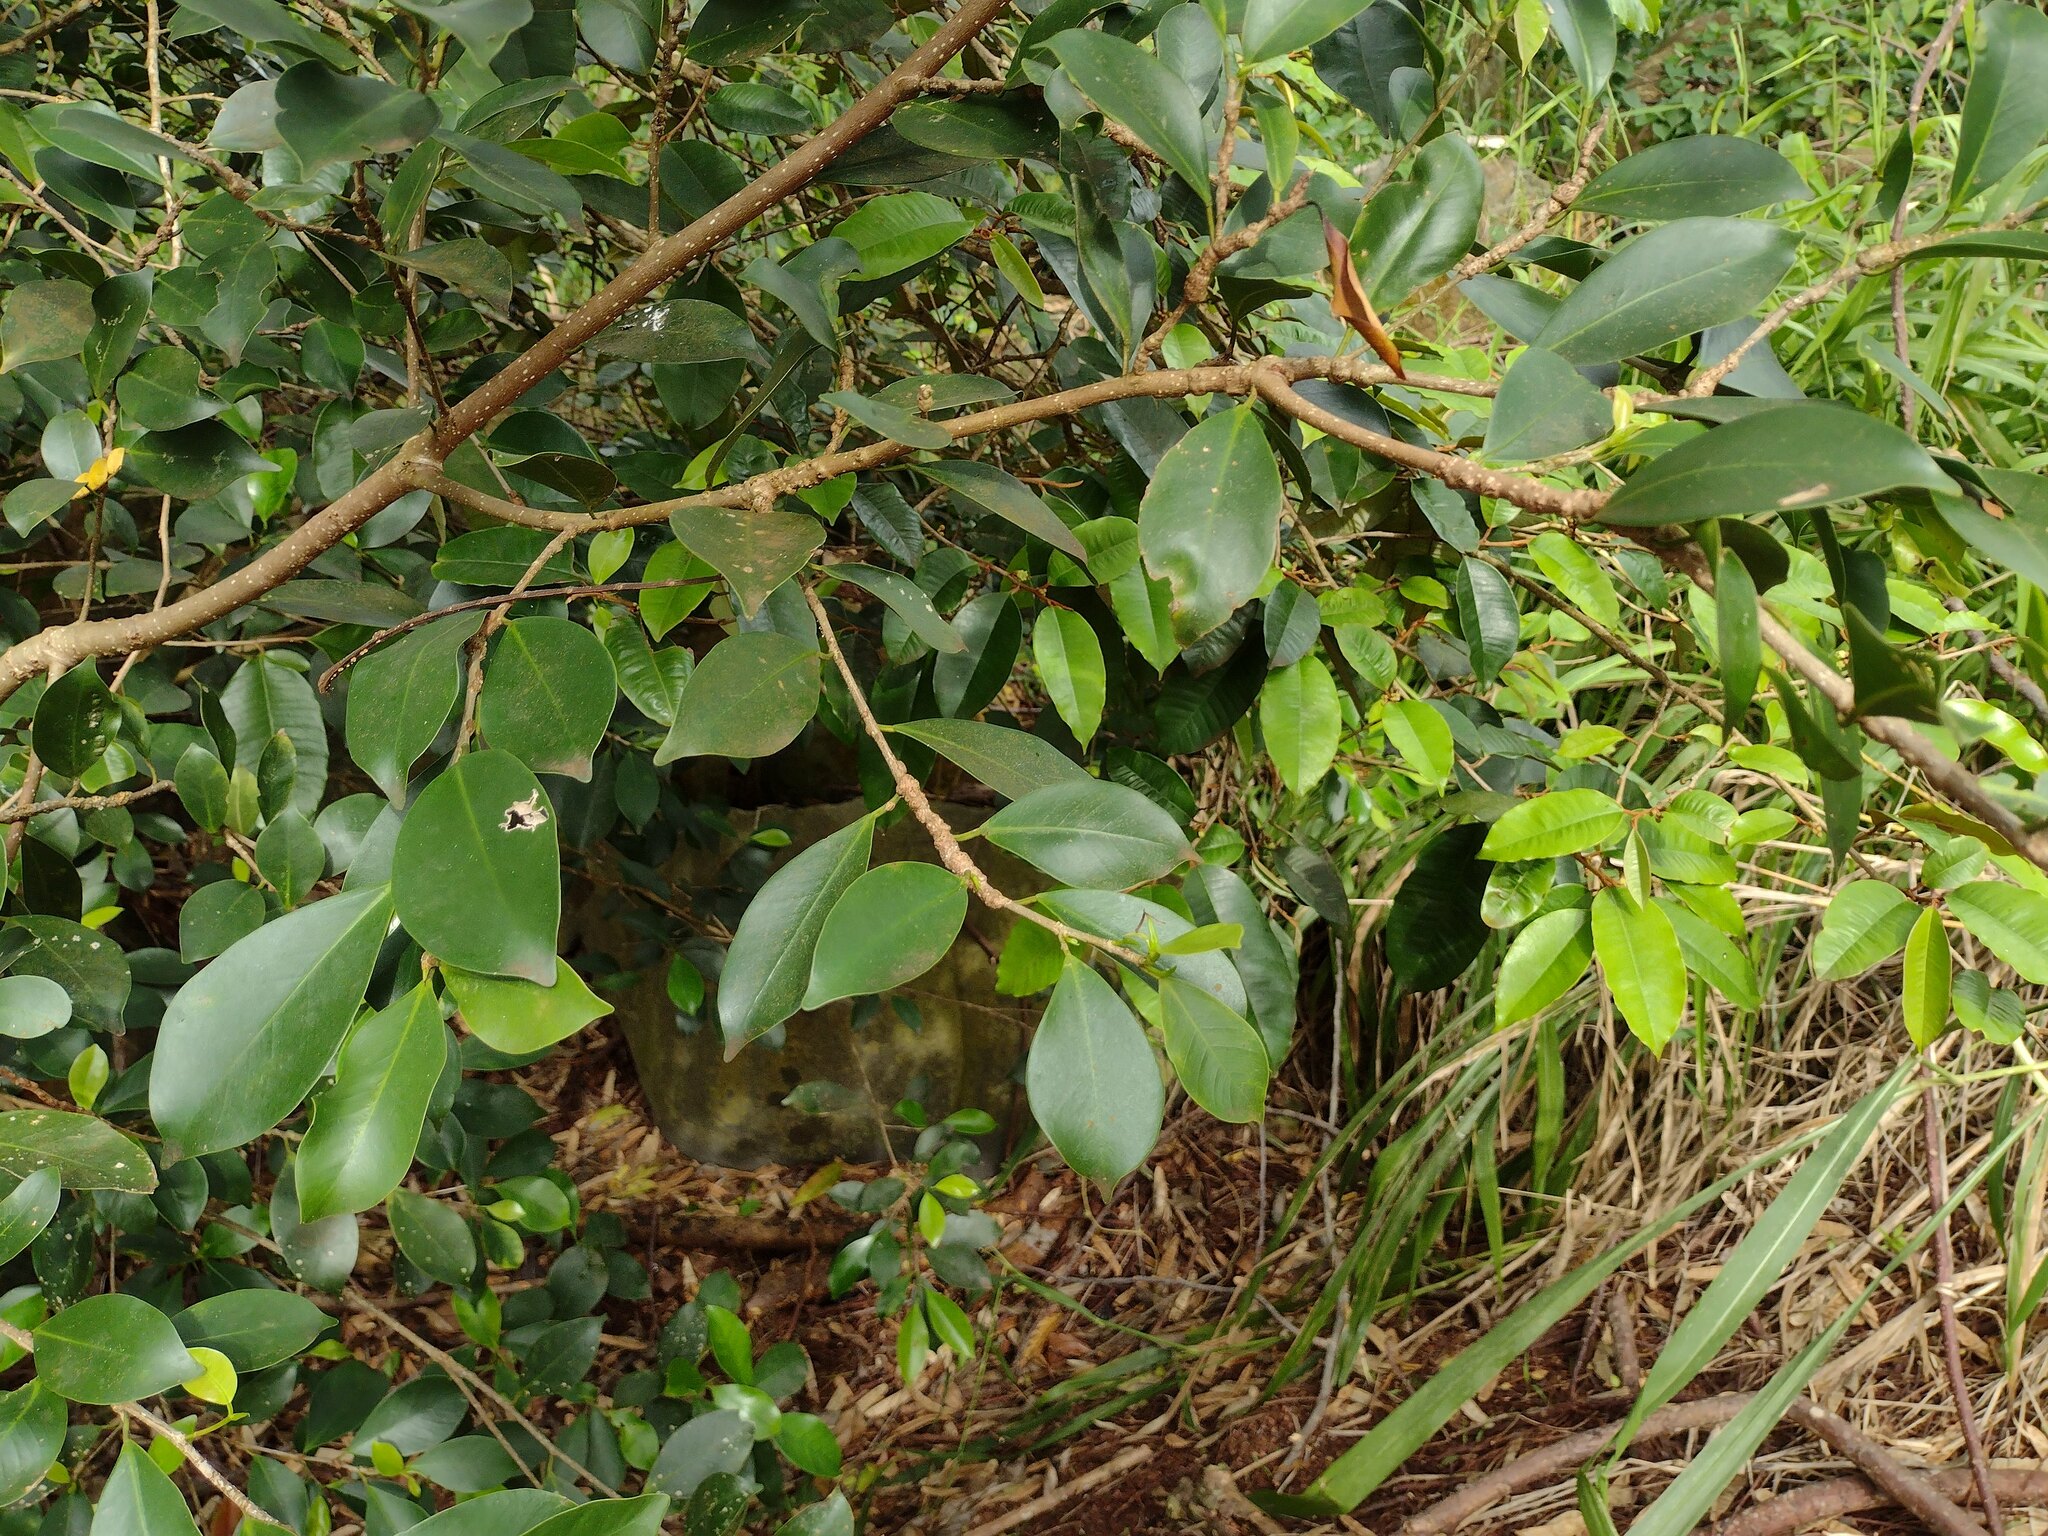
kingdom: Plantae
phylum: Tracheophyta
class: Magnoliopsida
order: Rosales
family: Moraceae
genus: Ficus
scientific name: Ficus microcarpa
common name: Chinese banyan
